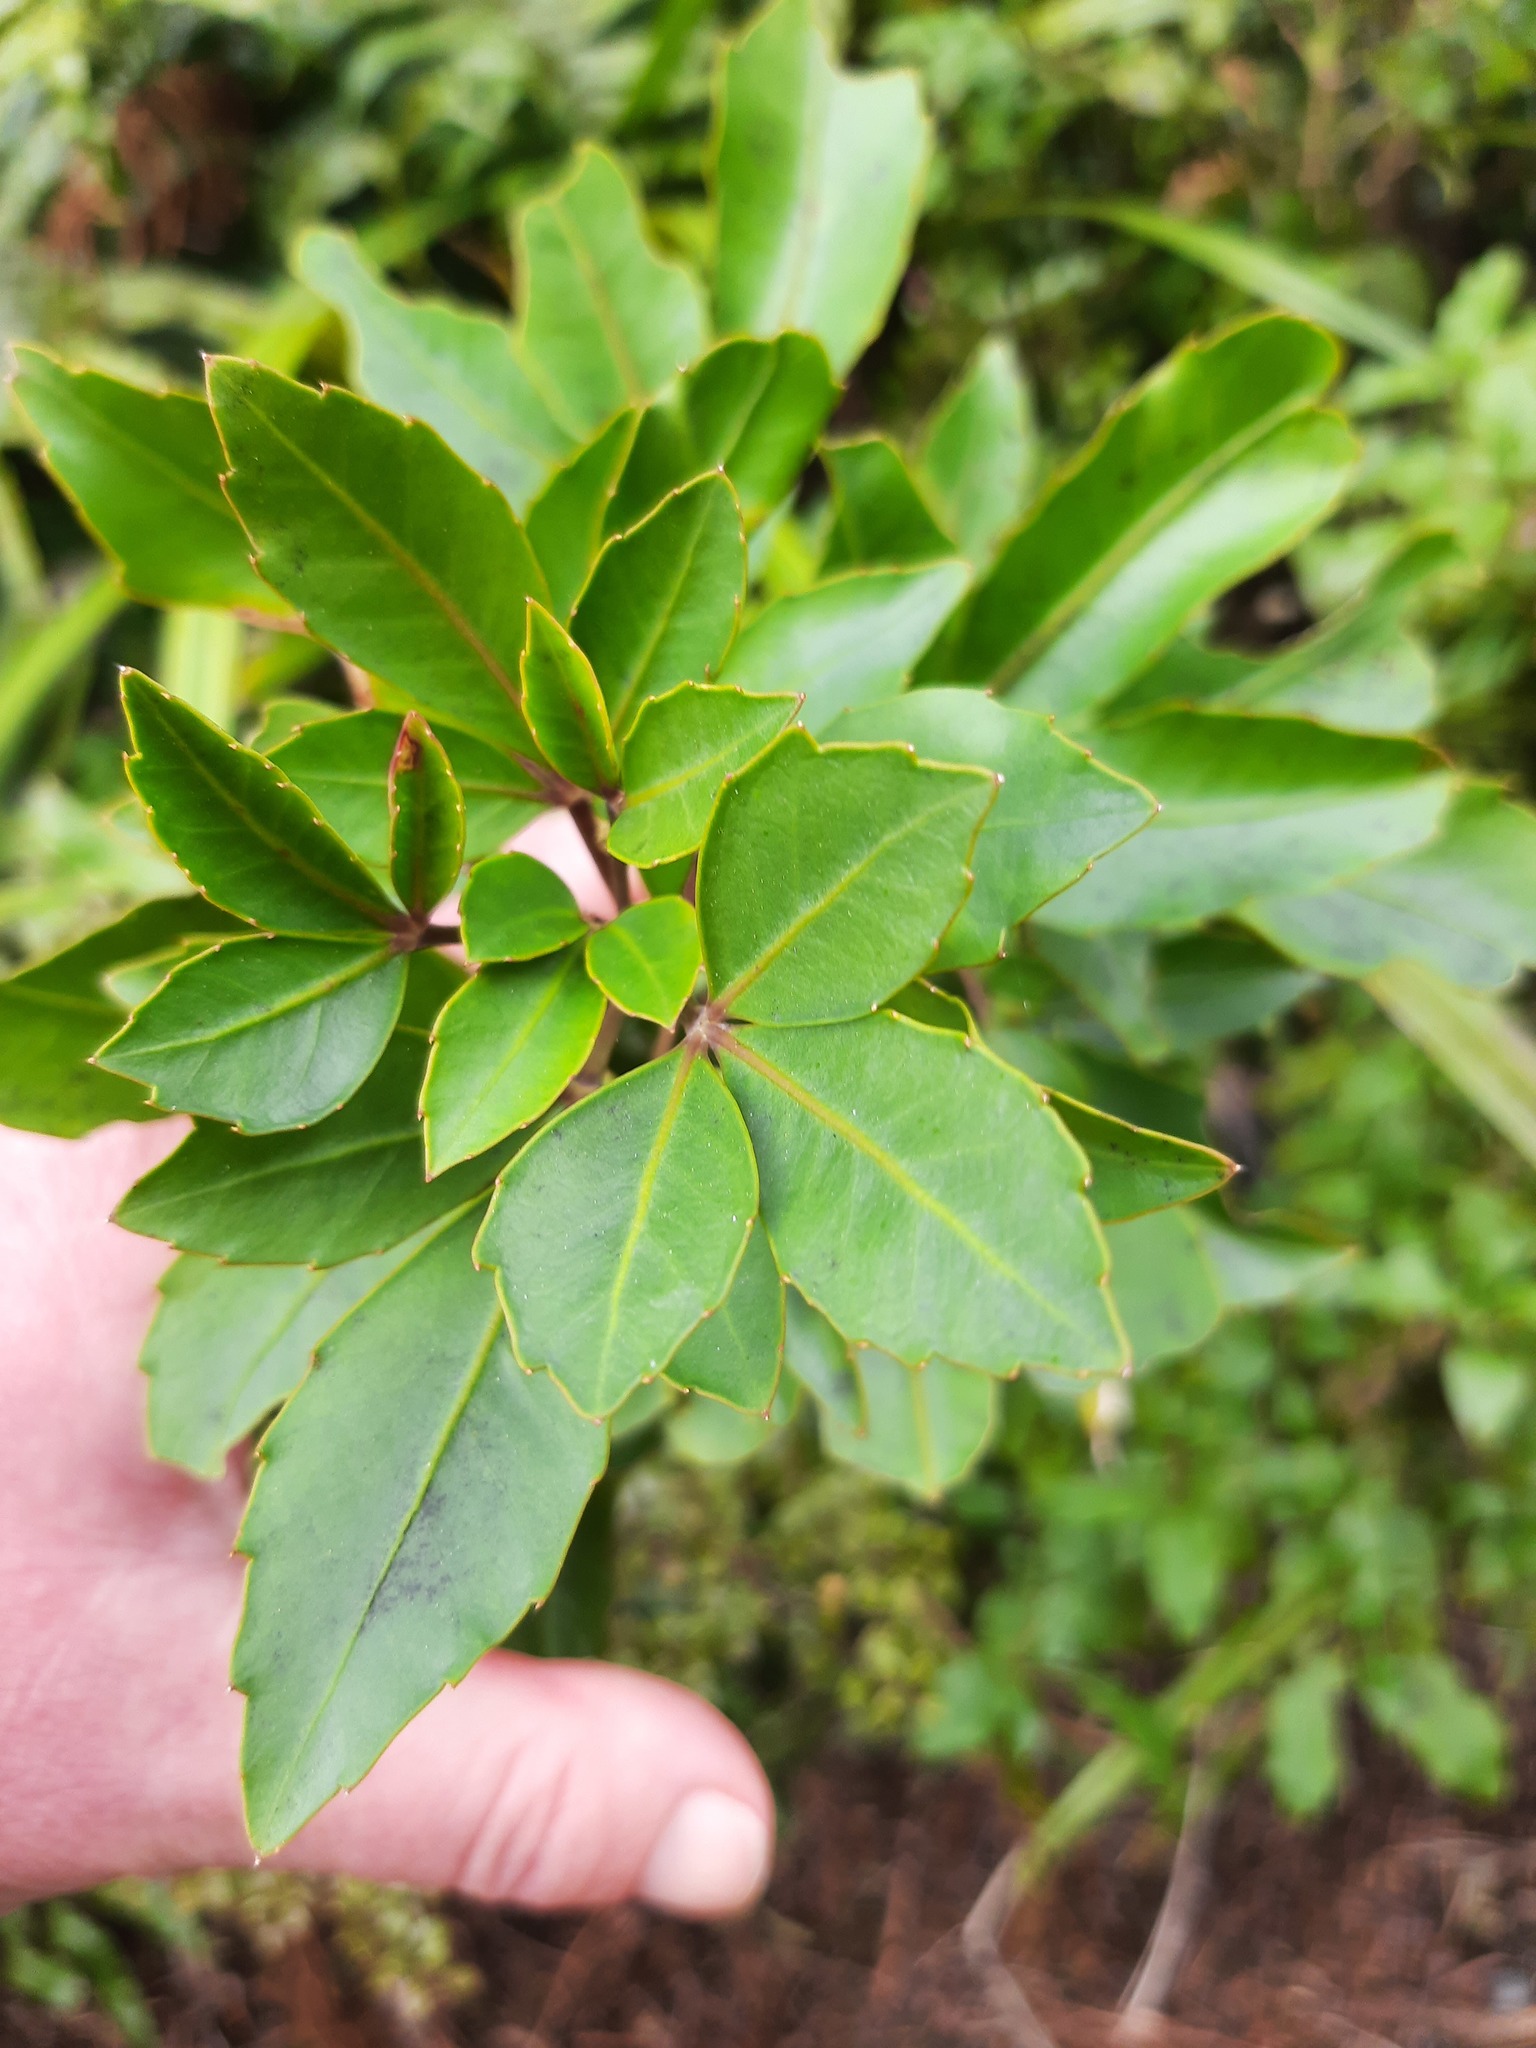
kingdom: Plantae
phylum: Tracheophyta
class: Magnoliopsida
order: Apiales
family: Araliaceae
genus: Neopanax
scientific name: Neopanax colensoi
